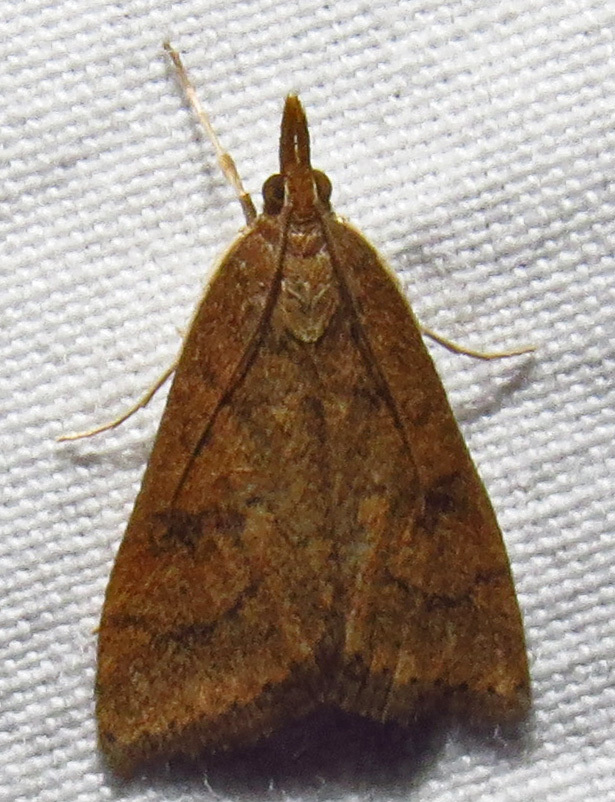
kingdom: Animalia
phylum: Arthropoda
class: Insecta
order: Lepidoptera
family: Crambidae
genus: Udea
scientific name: Udea rubigalis
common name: Celery leaftier moth
